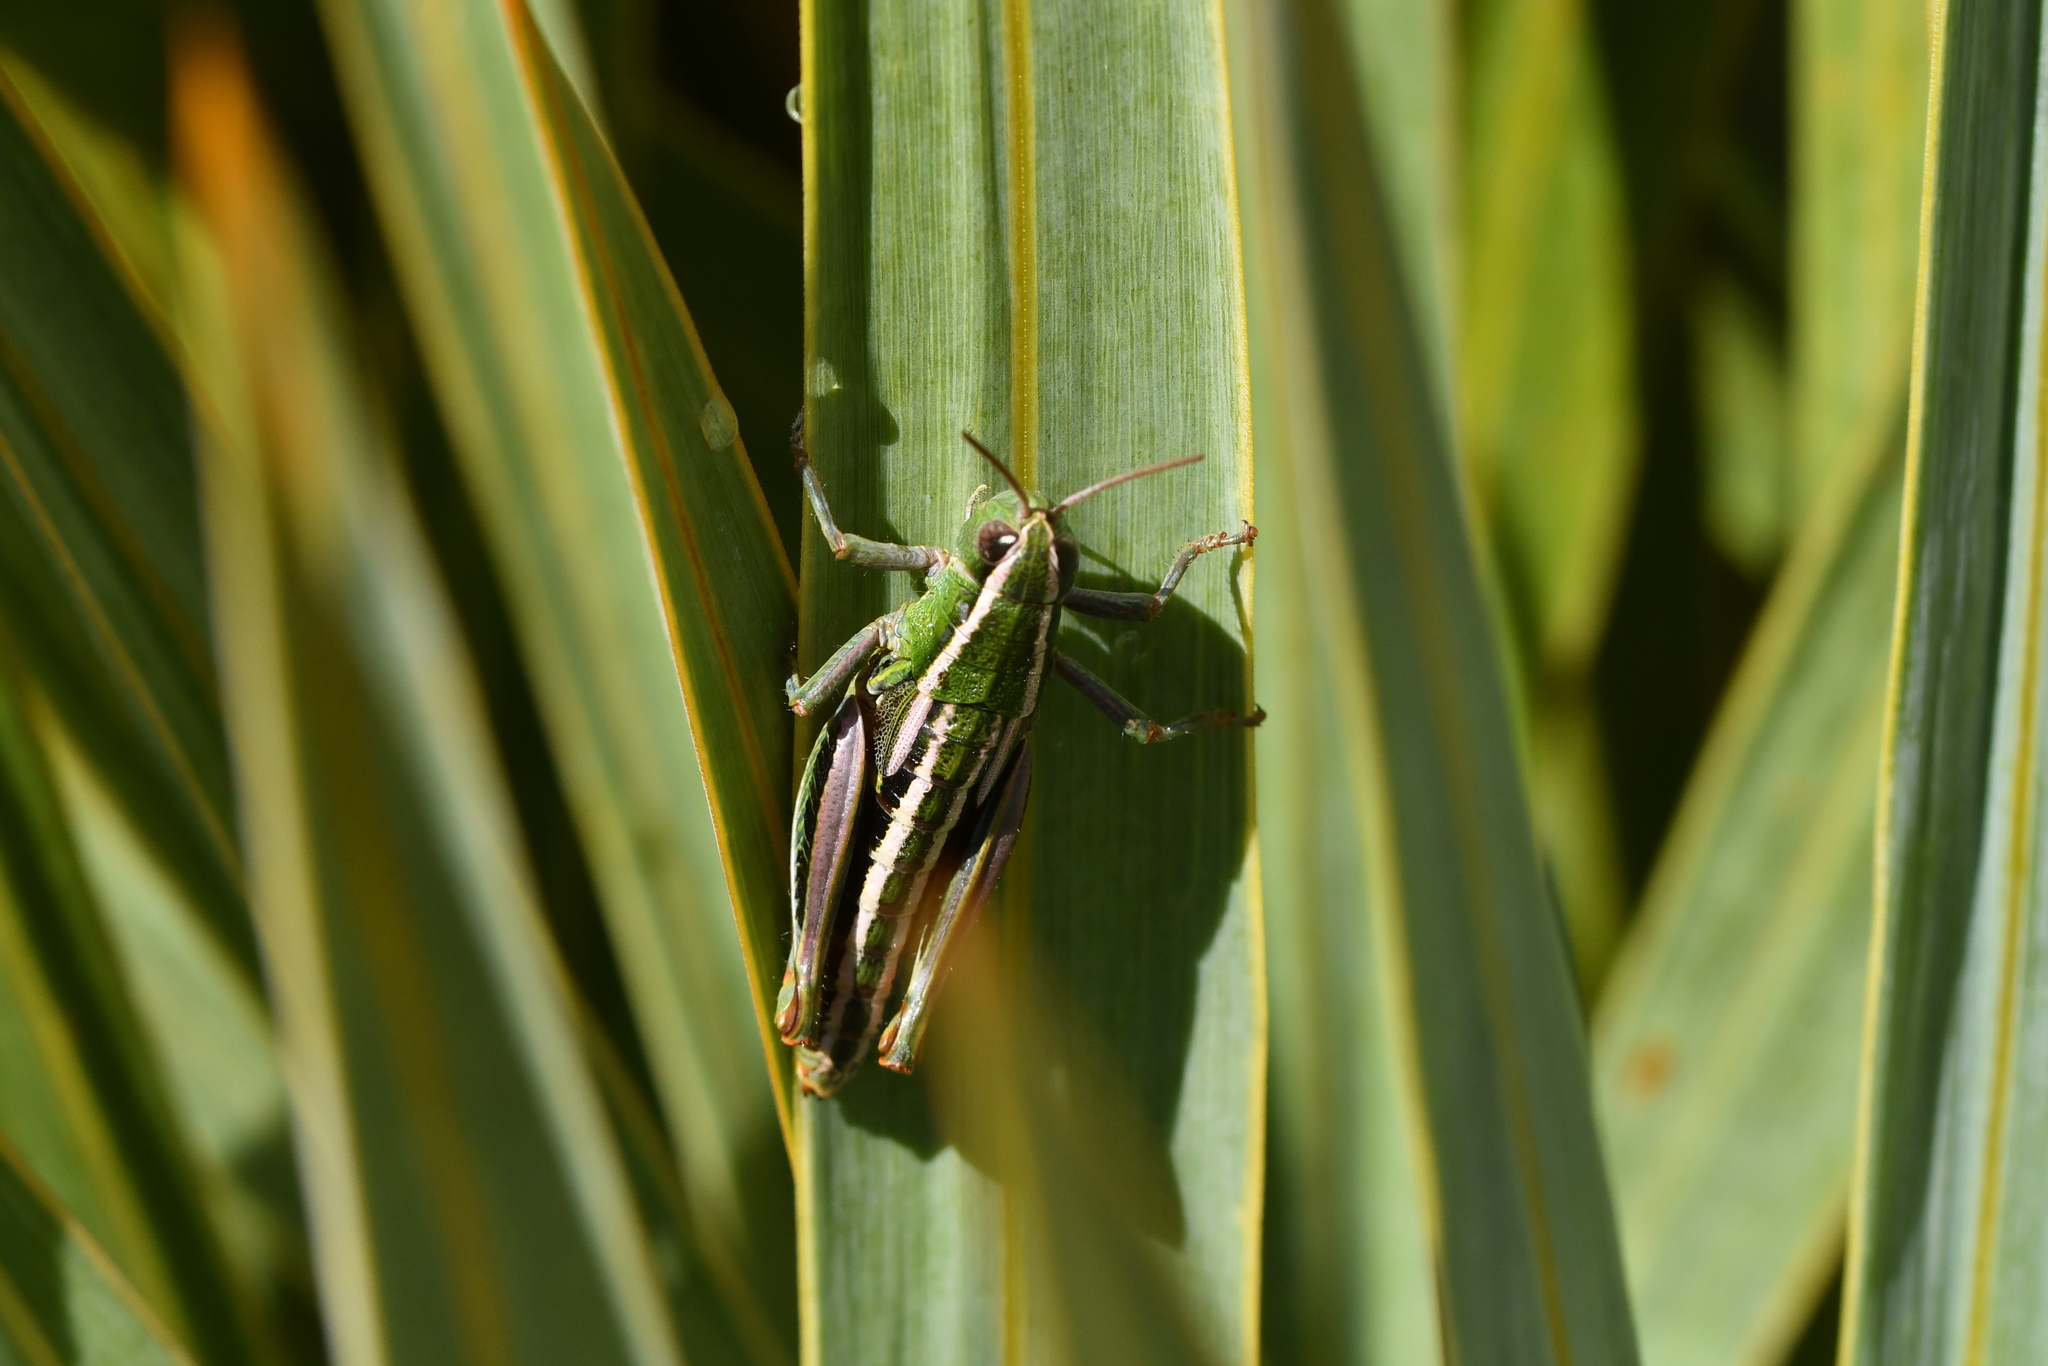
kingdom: Animalia
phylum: Arthropoda
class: Insecta
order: Orthoptera
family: Acrididae
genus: Sigaus
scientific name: Sigaus
